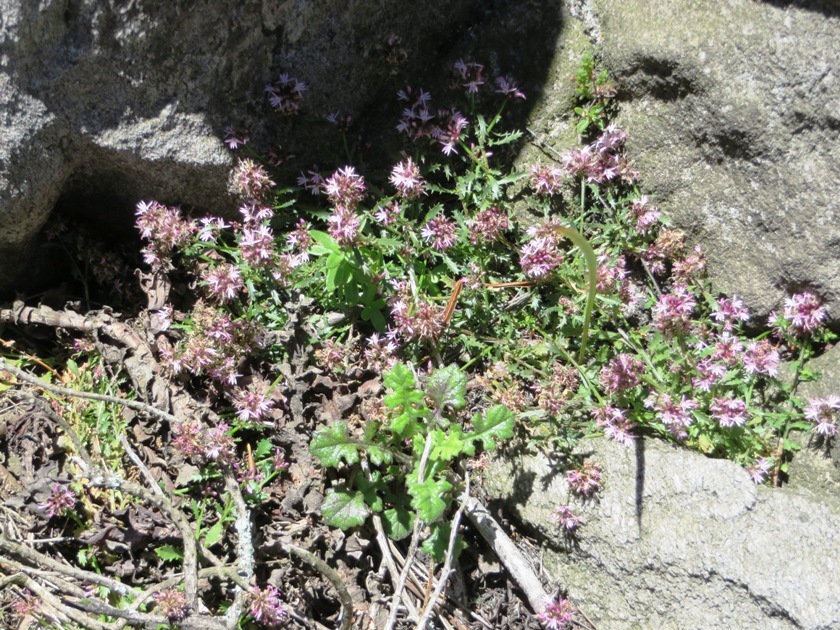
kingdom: Plantae
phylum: Tracheophyta
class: Magnoliopsida
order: Asterales
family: Campanulaceae
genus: Lobelia
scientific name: Lobelia jasionoides
